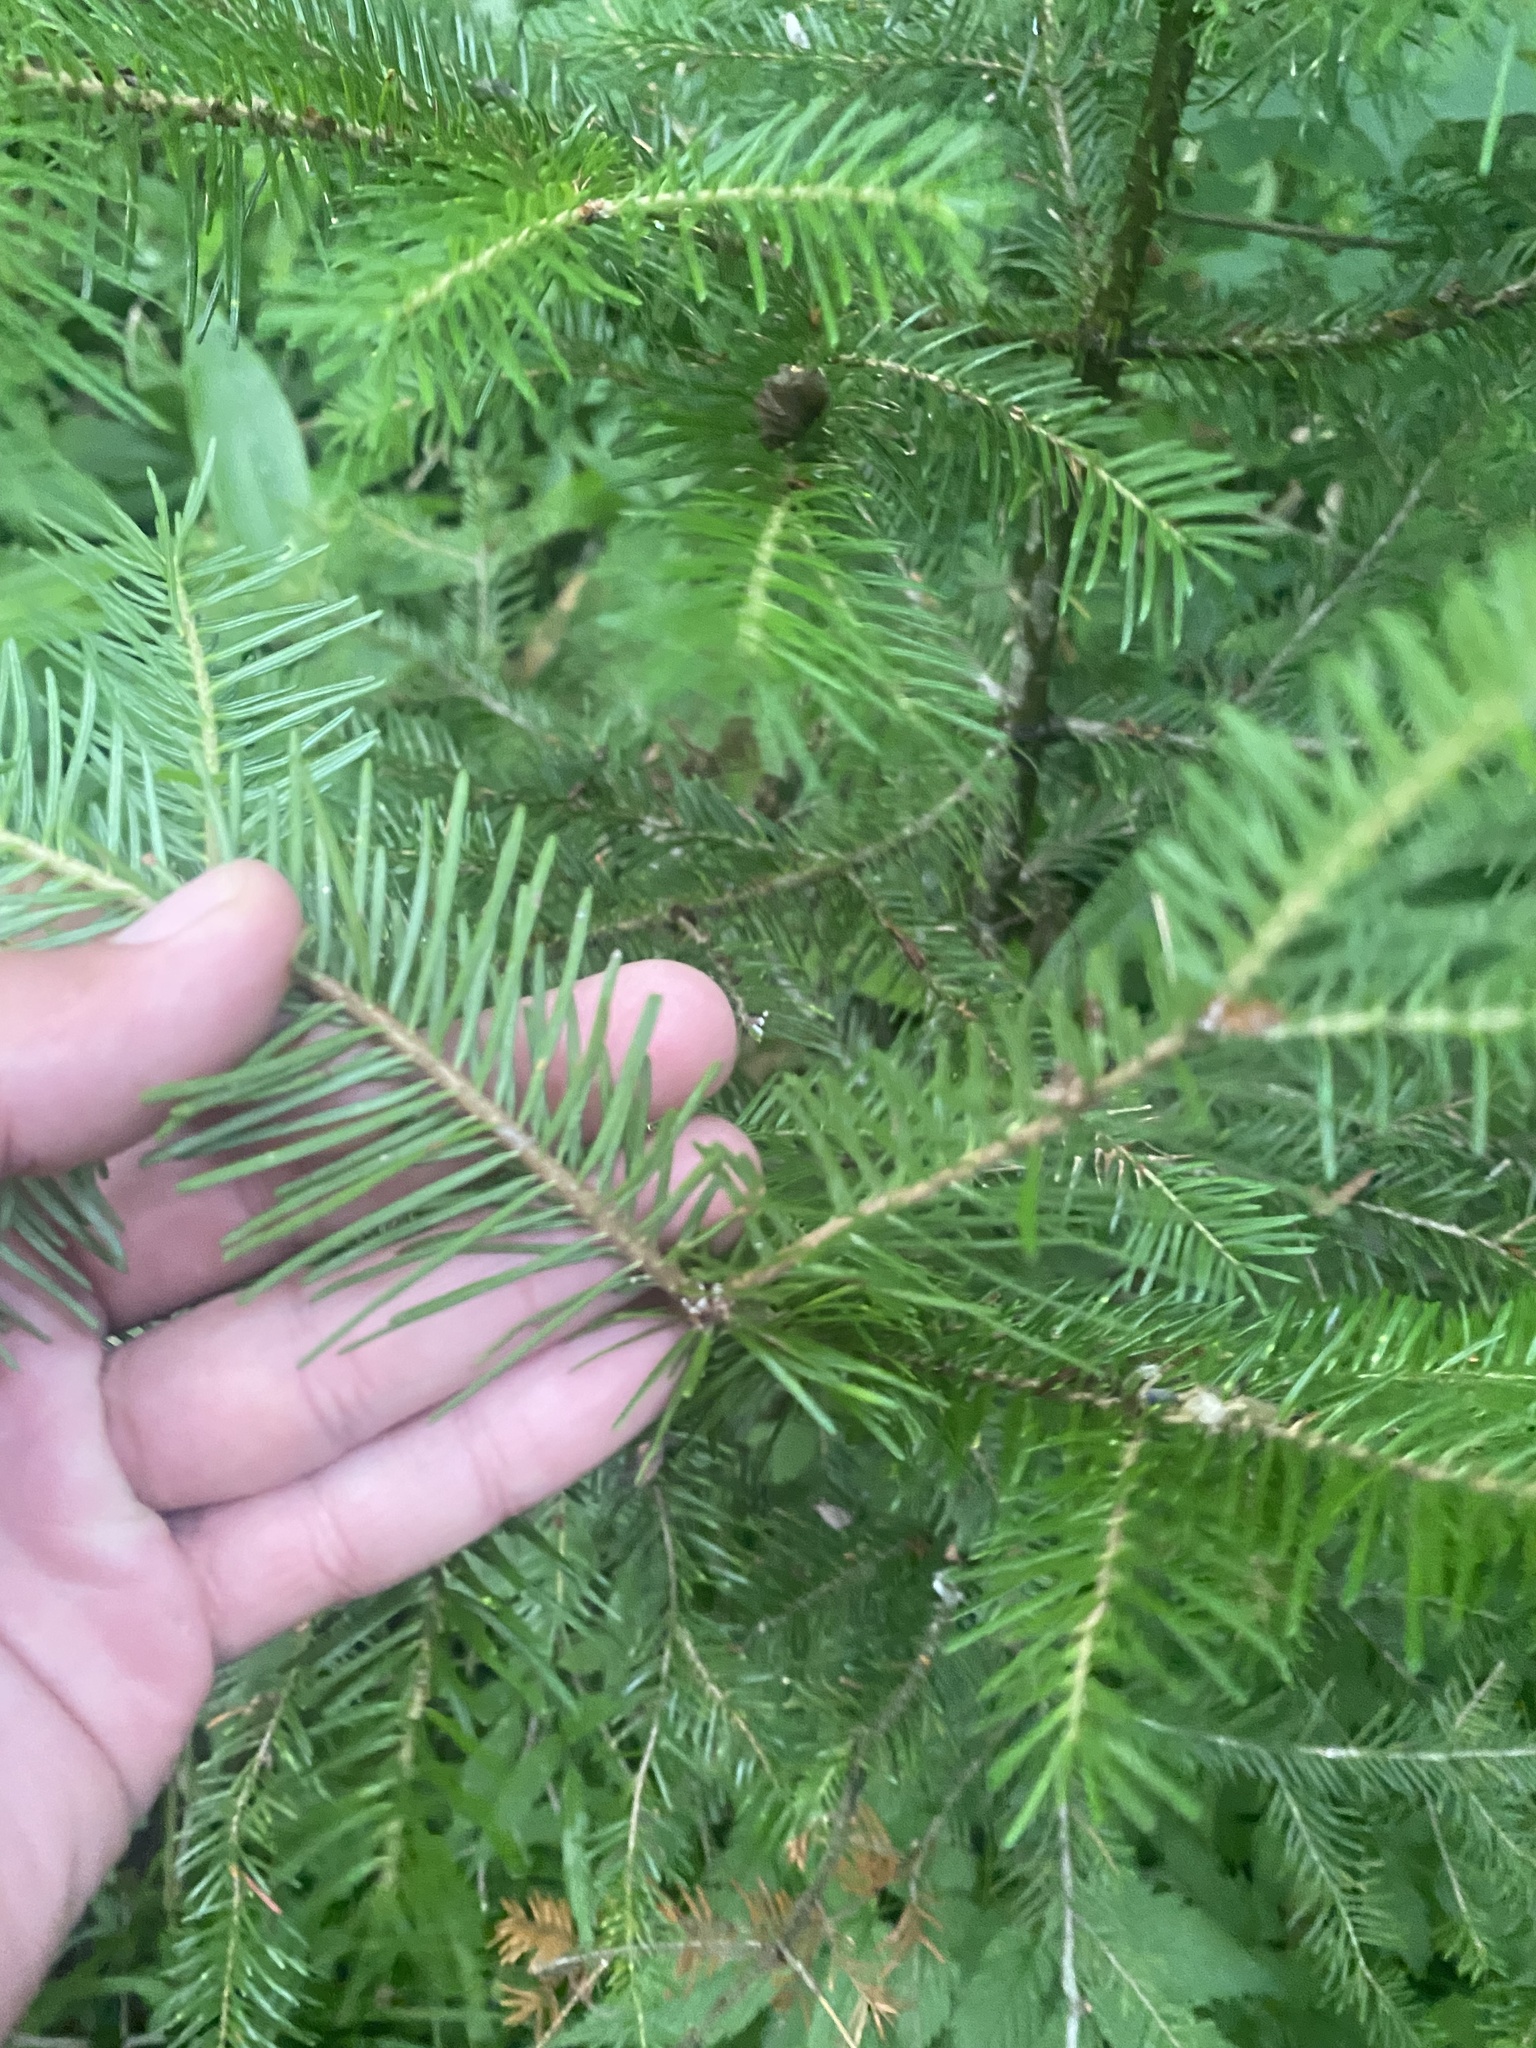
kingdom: Plantae
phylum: Tracheophyta
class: Pinopsida
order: Pinales
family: Pinaceae
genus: Abies
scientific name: Abies sachalinensis
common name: Sakhalin fir
